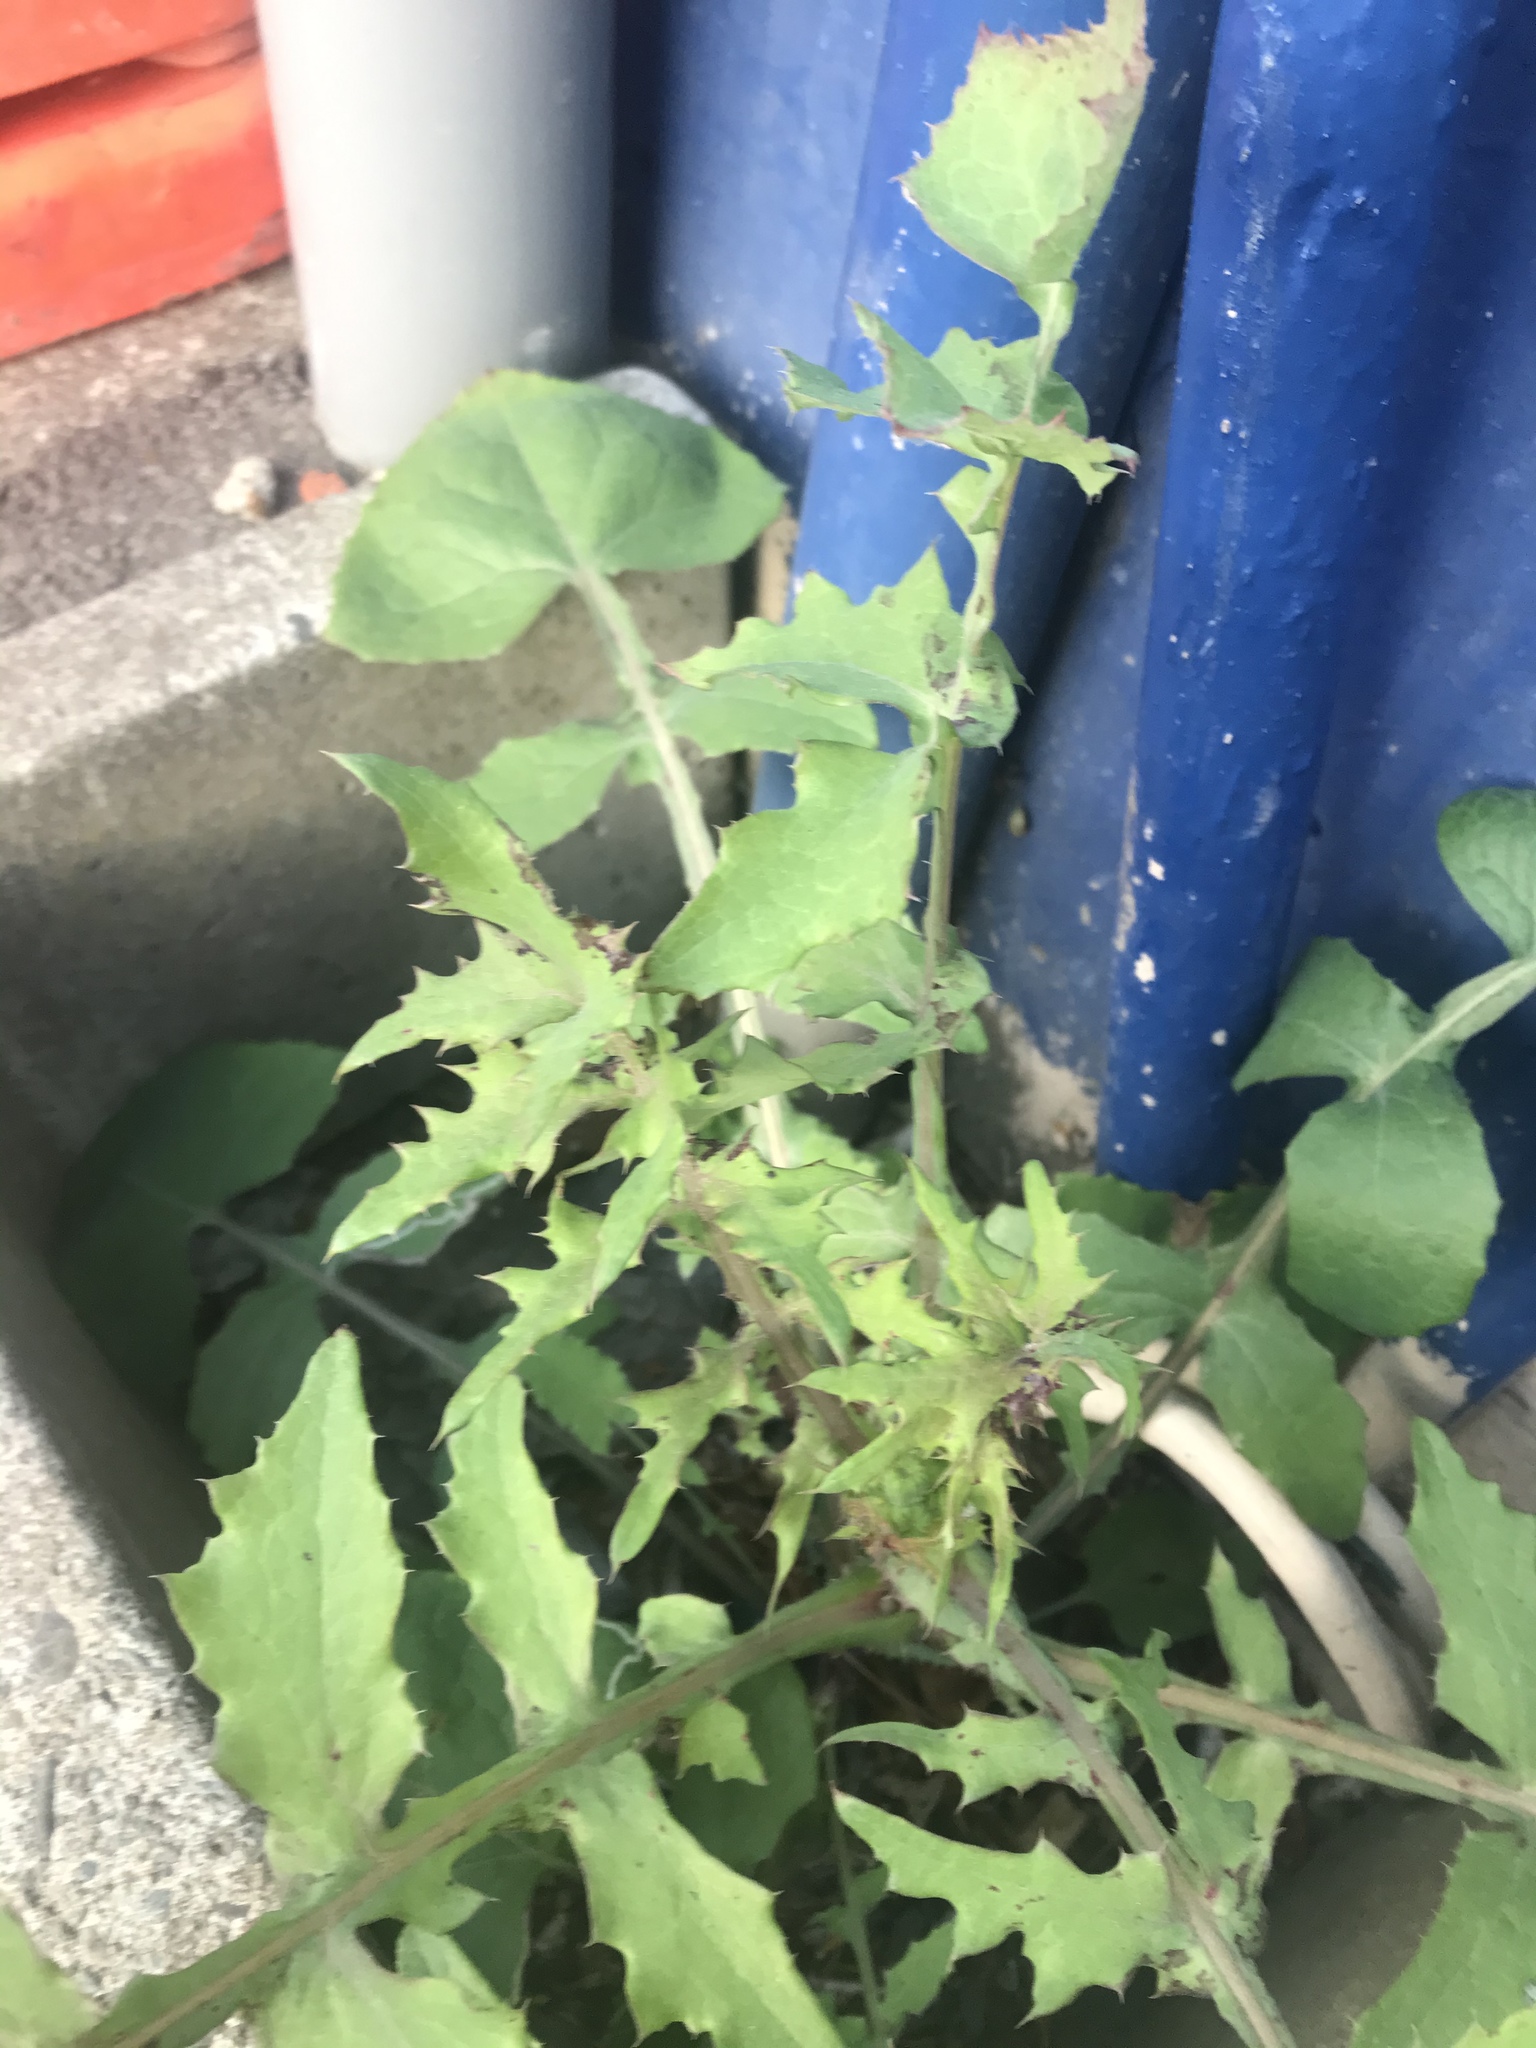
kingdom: Plantae
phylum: Tracheophyta
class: Magnoliopsida
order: Asterales
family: Asteraceae
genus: Sonchus
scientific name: Sonchus oleraceus
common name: Common sowthistle
